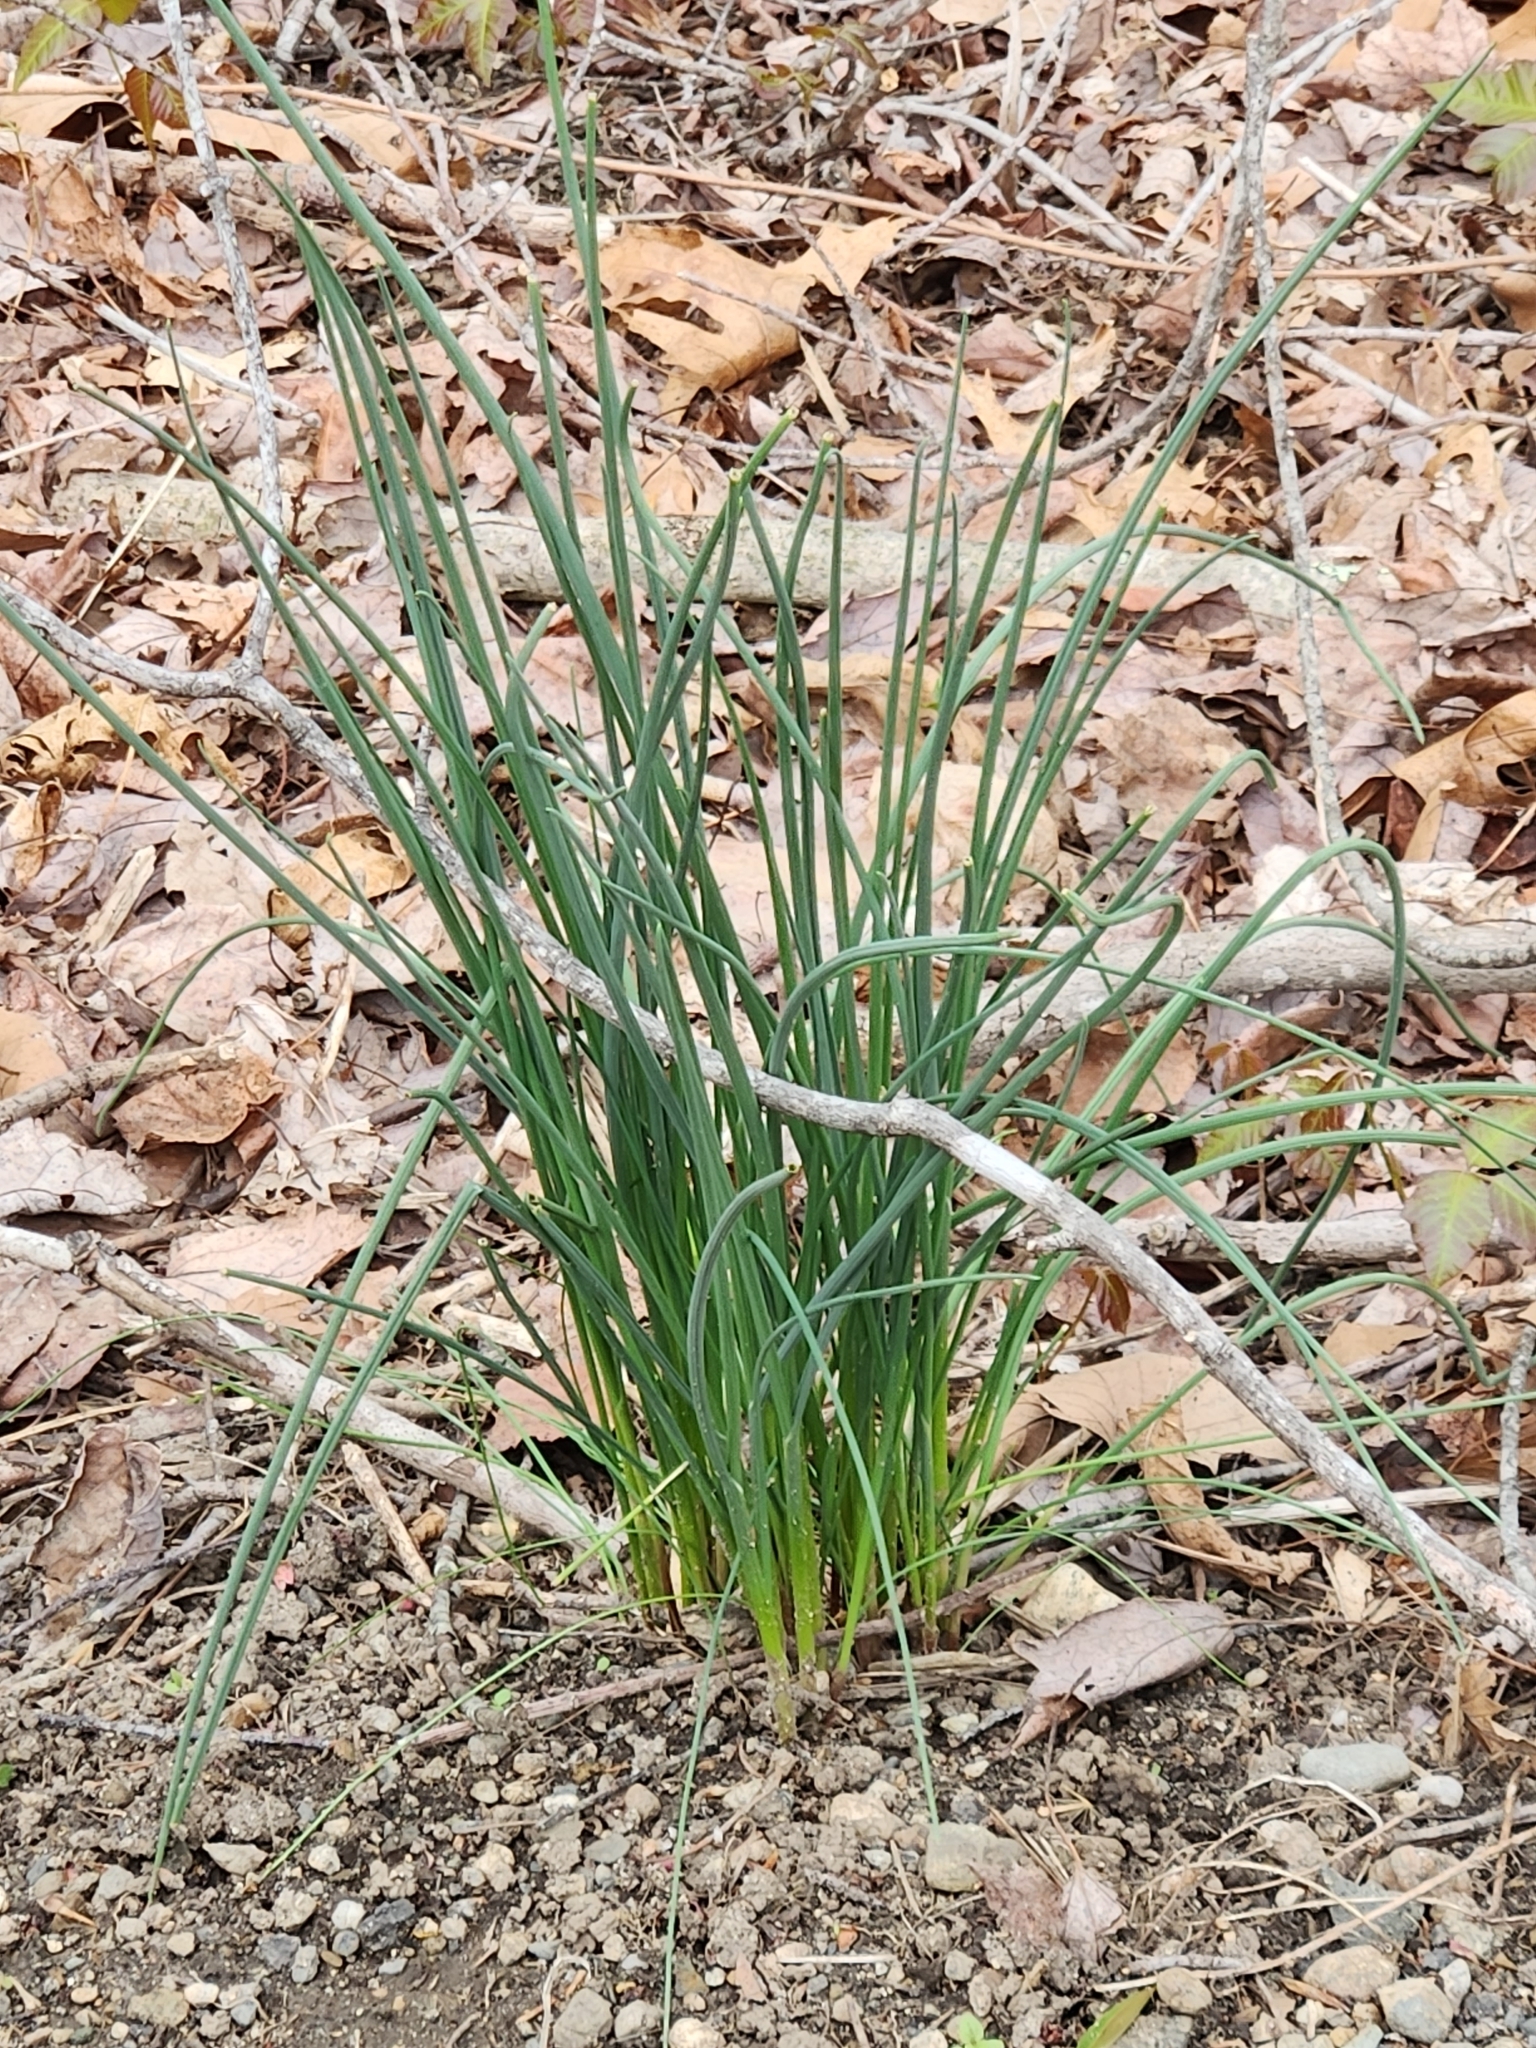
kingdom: Plantae
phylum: Tracheophyta
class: Liliopsida
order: Asparagales
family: Amaryllidaceae
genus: Allium
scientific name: Allium vineale
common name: Crow garlic
